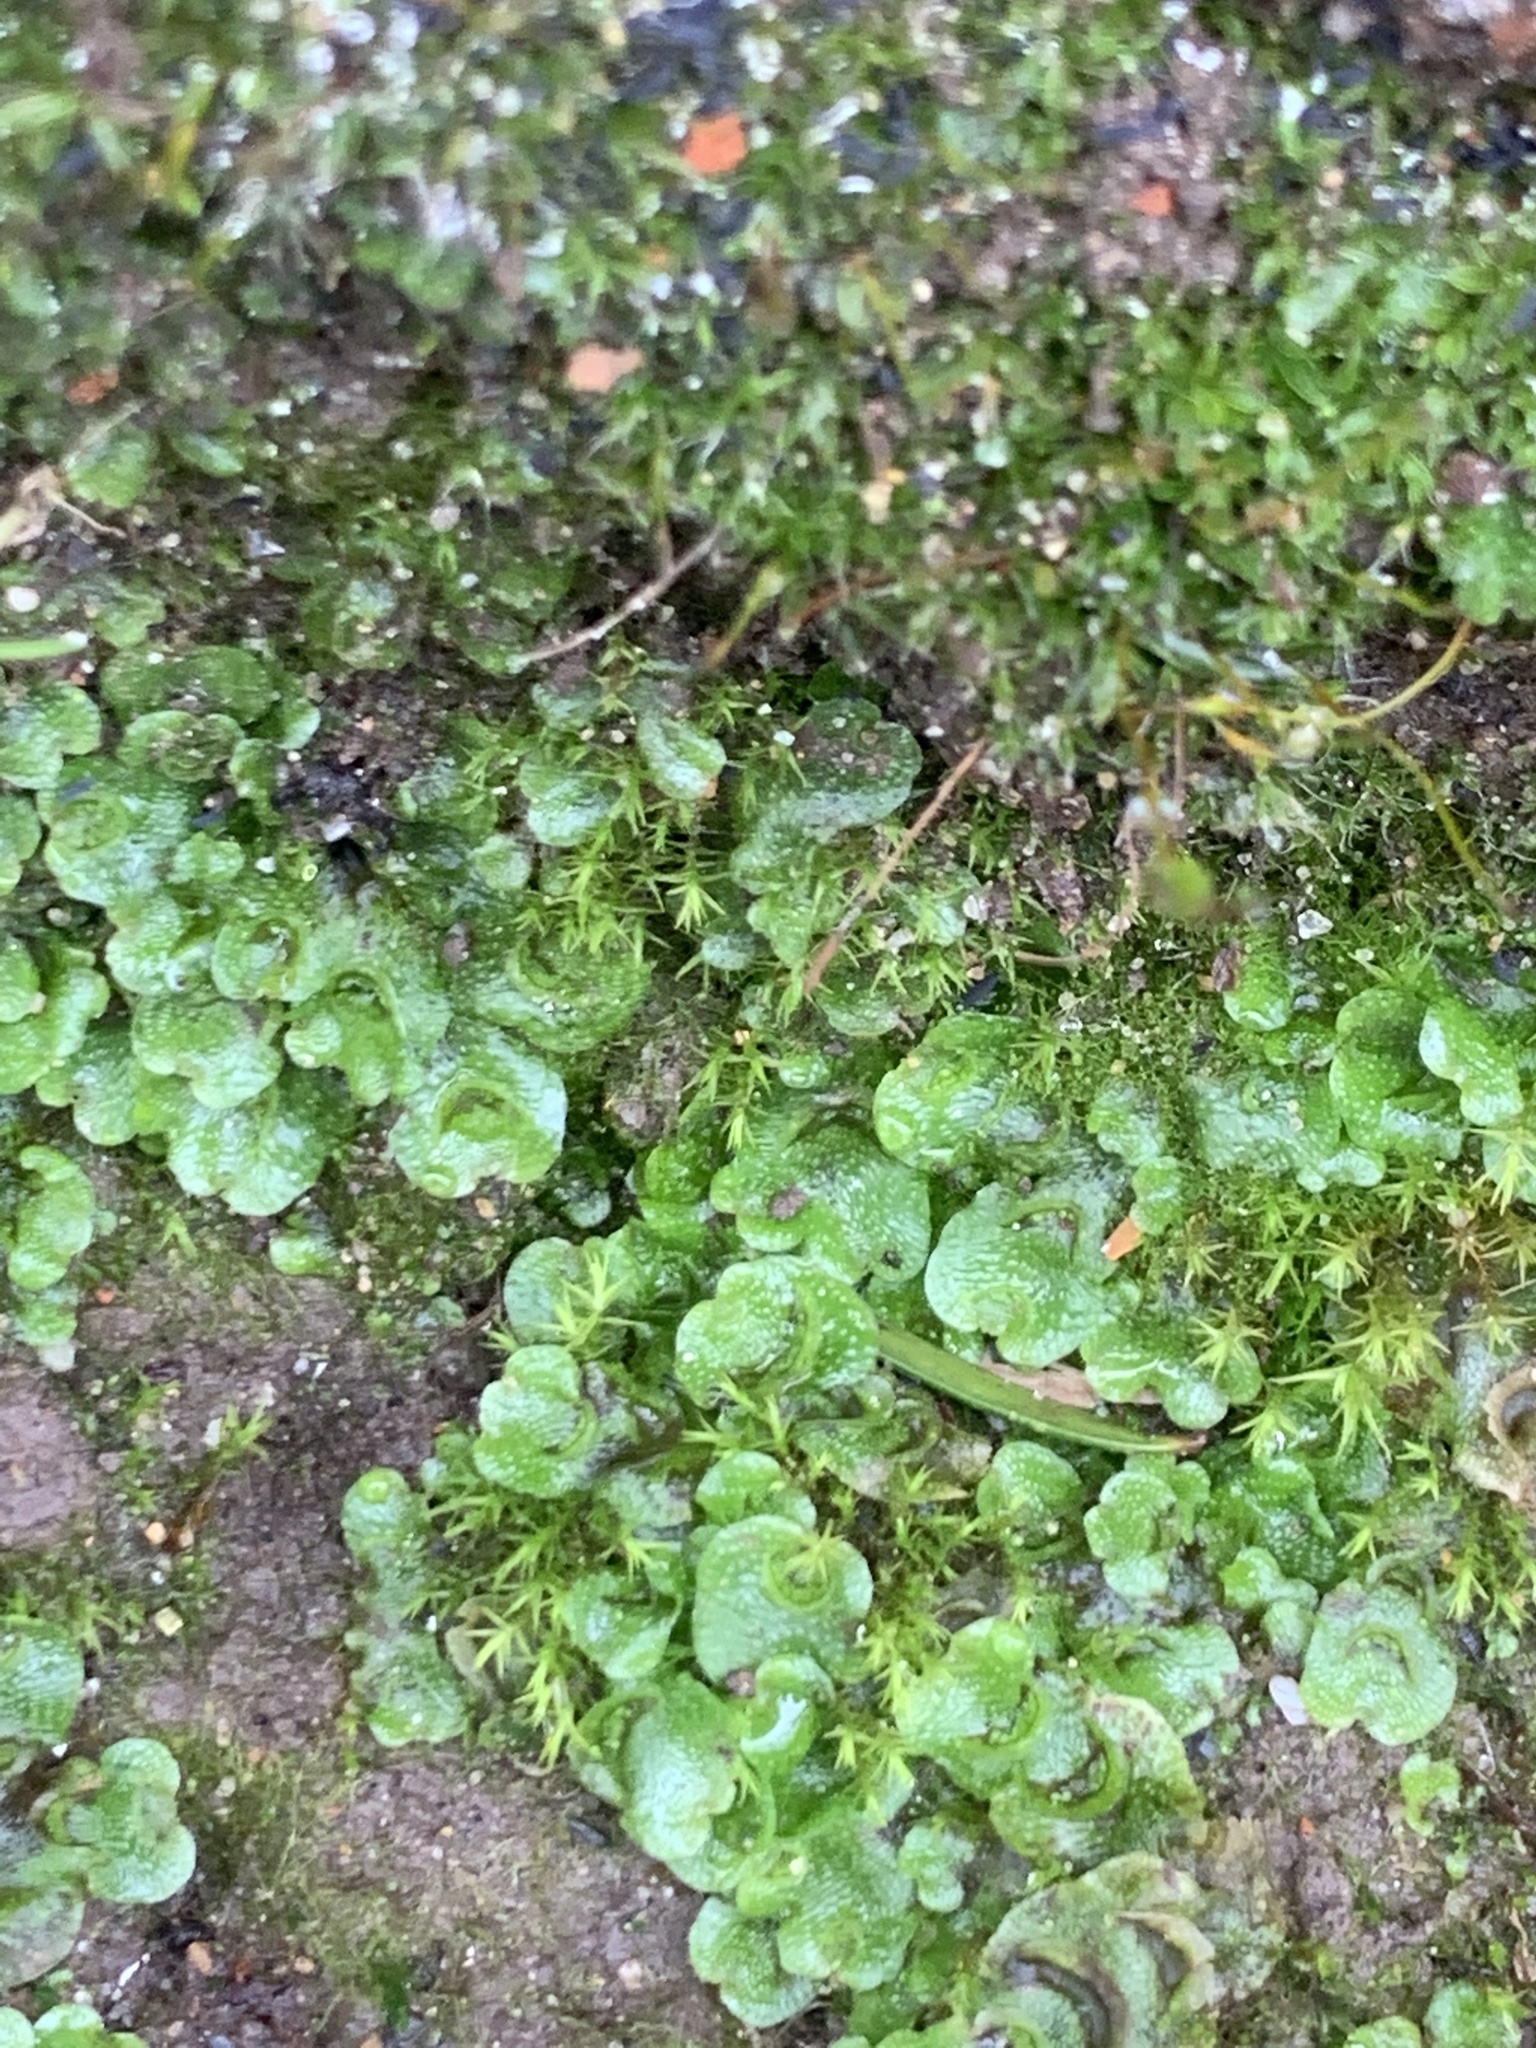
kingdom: Plantae
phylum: Marchantiophyta
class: Marchantiopsida
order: Lunulariales
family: Lunulariaceae
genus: Lunularia
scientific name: Lunularia cruciata
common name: Crescent-cup liverwort
